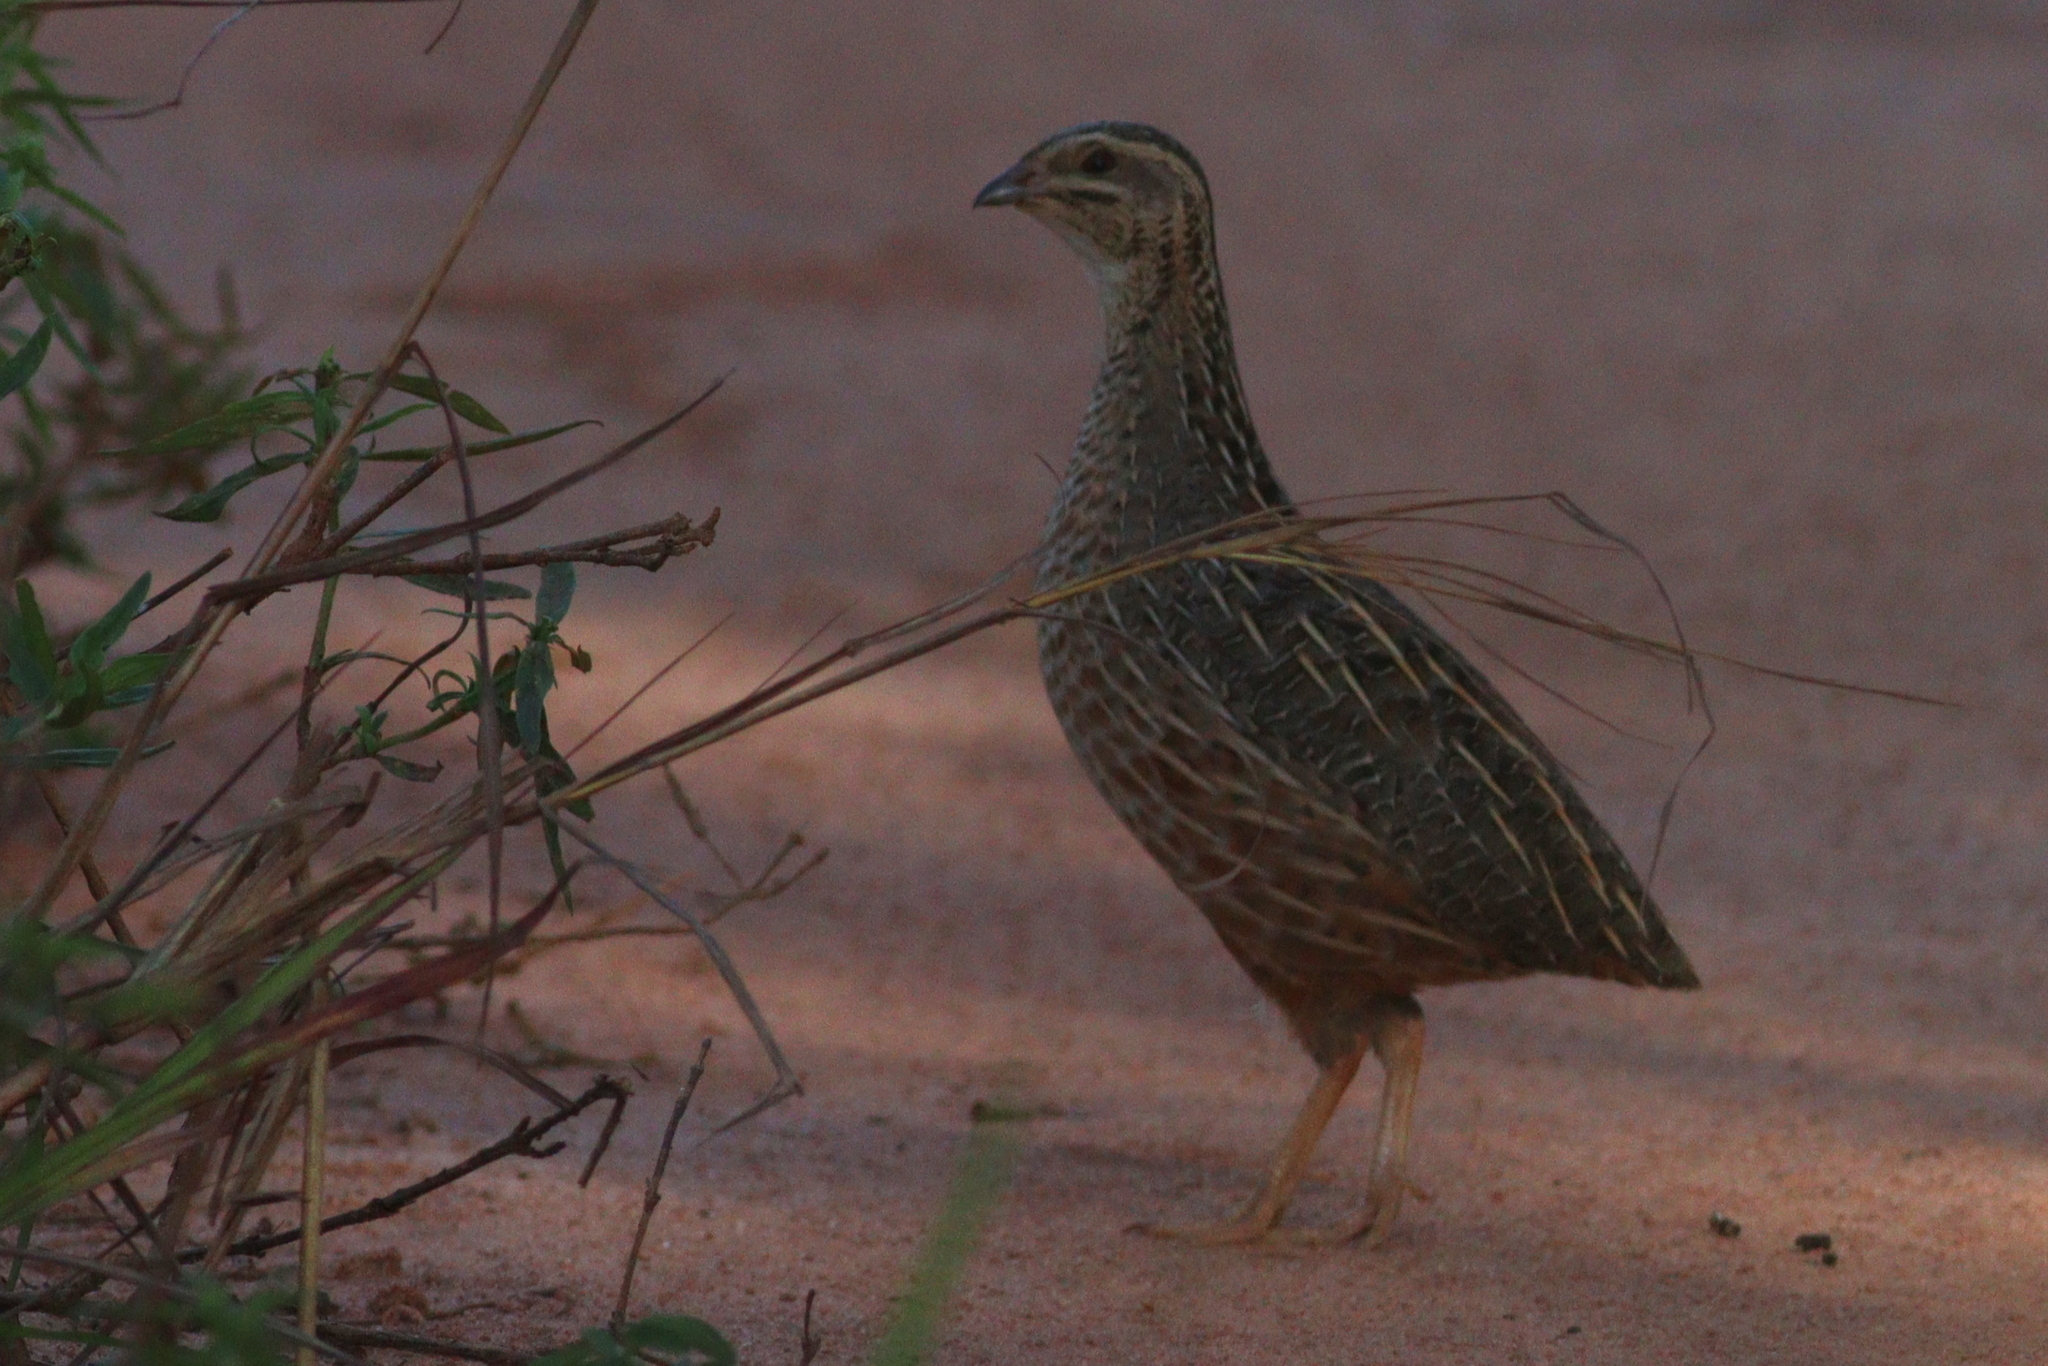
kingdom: Animalia
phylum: Chordata
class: Aves
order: Galliformes
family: Phasianidae
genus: Coturnix
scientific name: Coturnix delegorguei
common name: Harlequin quail
